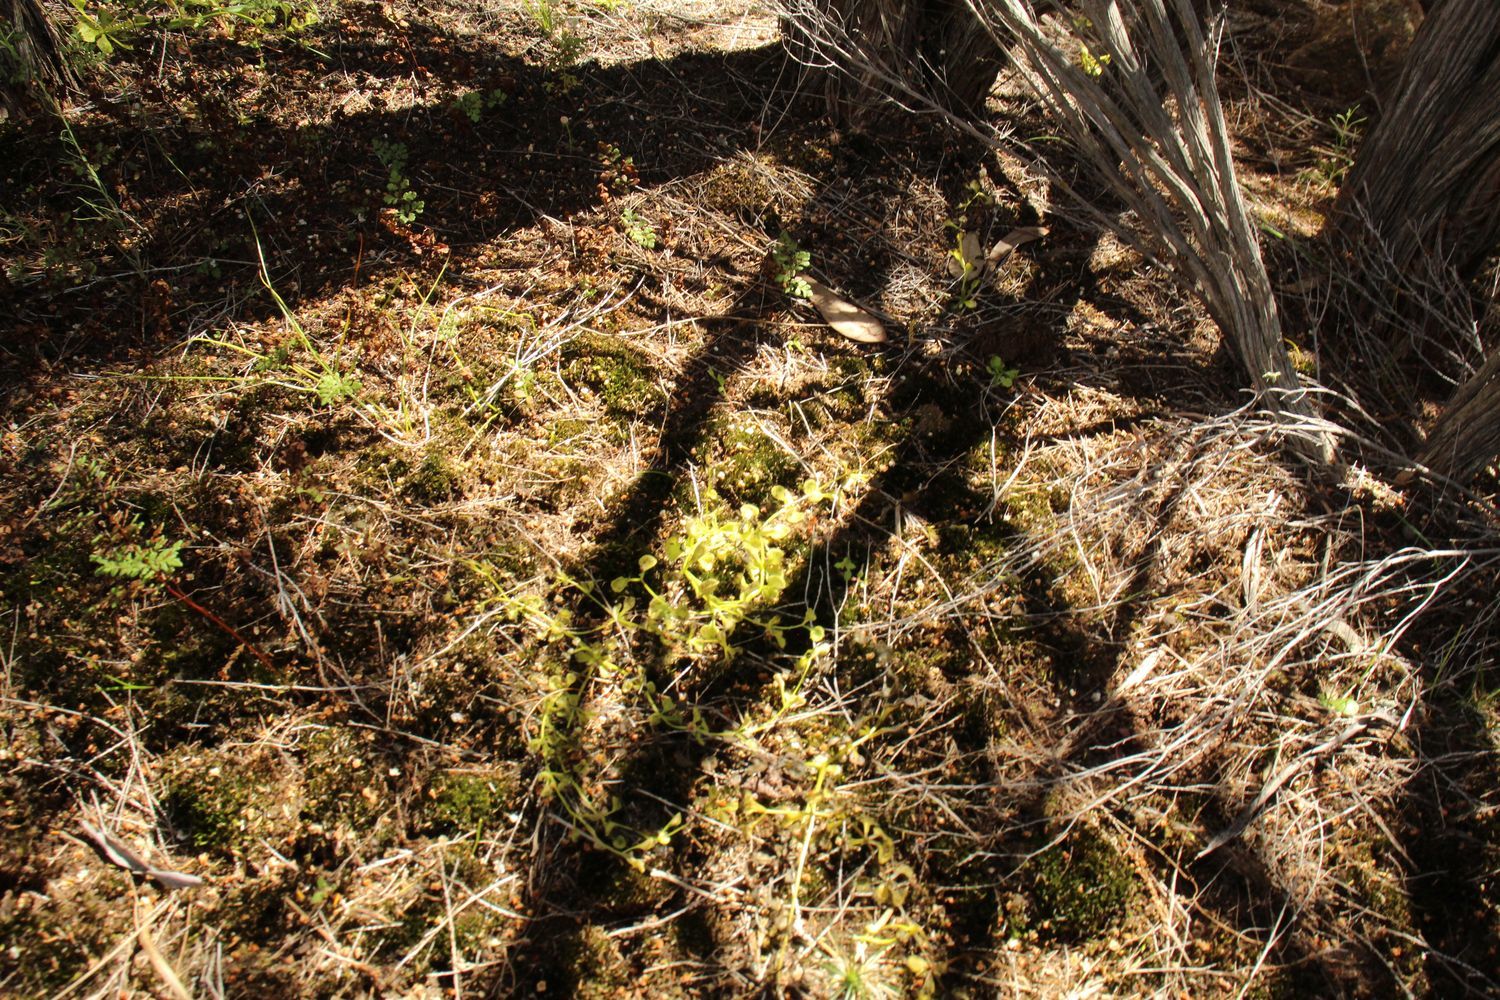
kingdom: Plantae
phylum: Tracheophyta
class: Magnoliopsida
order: Caryophyllales
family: Droseraceae
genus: Drosera
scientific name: Drosera rupicola
